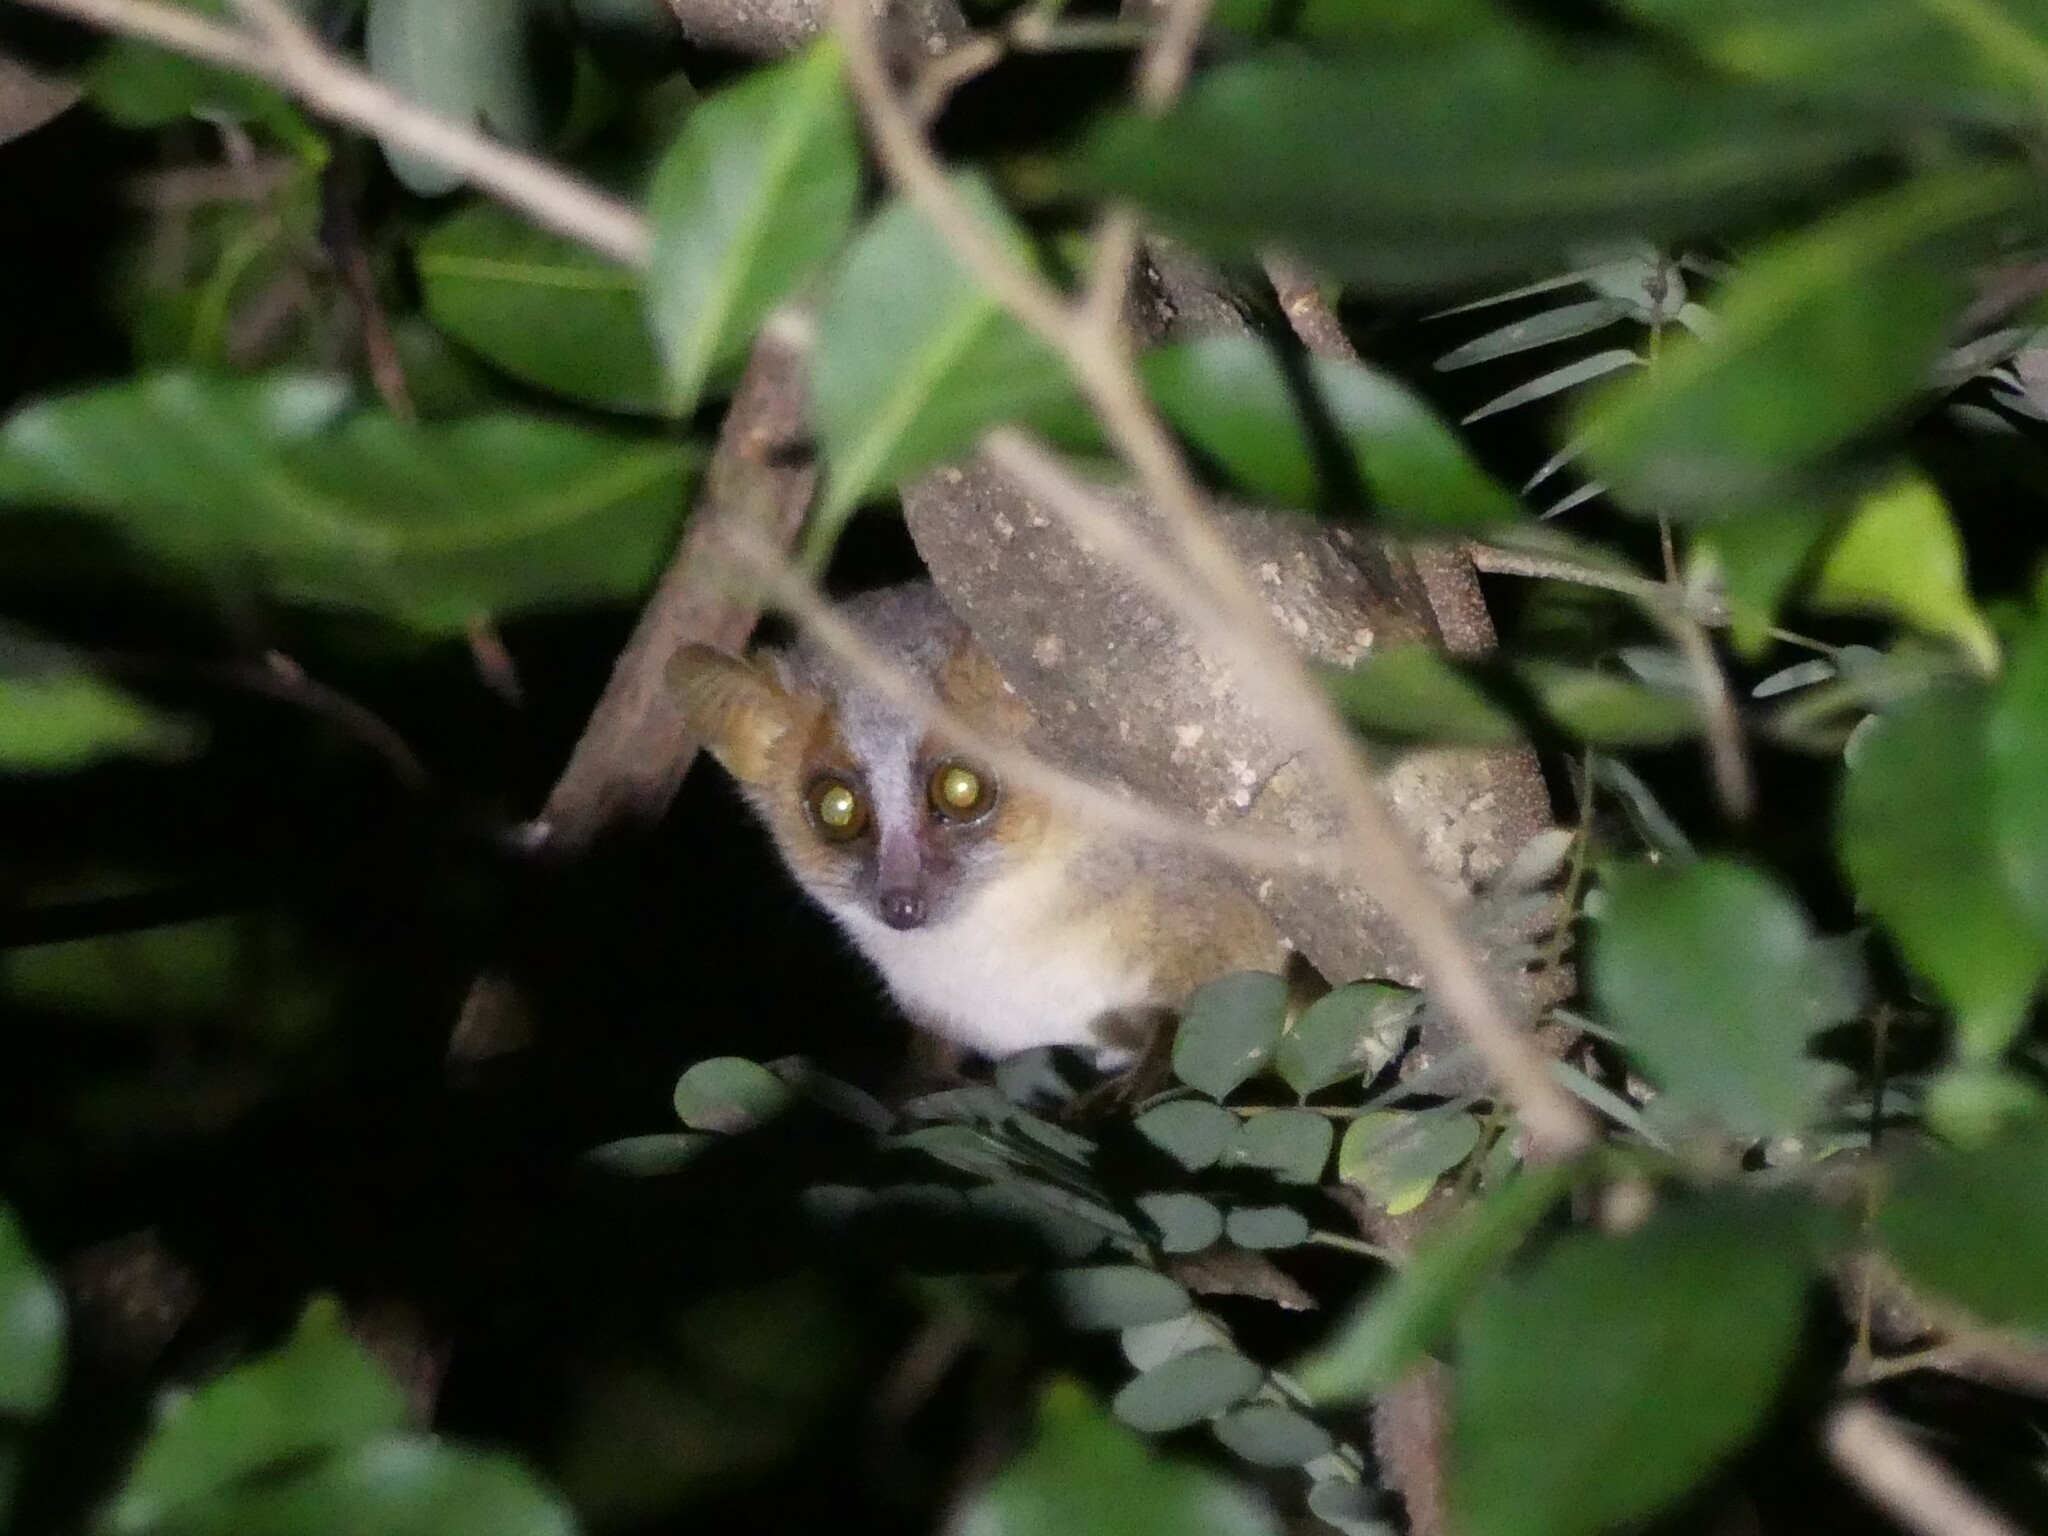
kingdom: Animalia
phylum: Chordata
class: Mammalia
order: Primates
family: Cheirogaleidae
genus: Microcebus
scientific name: Microcebus ravelobensis
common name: Golden-brown mouse lemur
